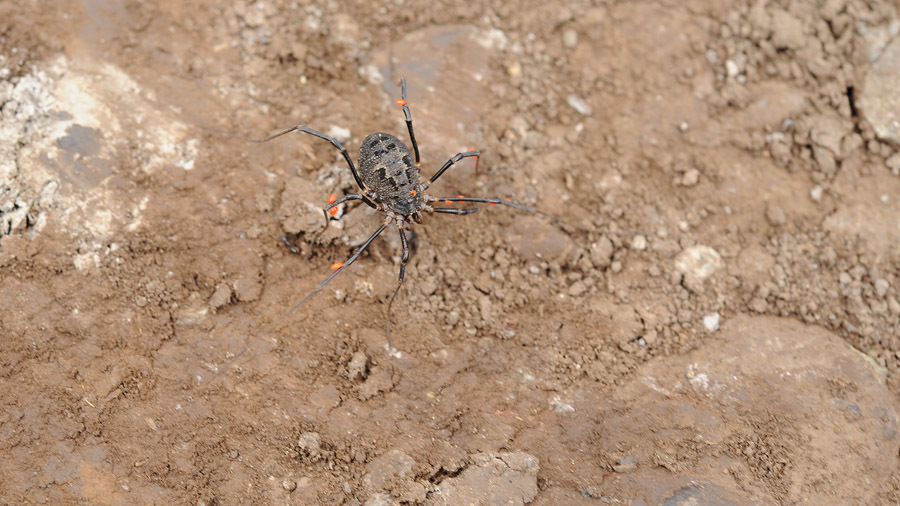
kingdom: Animalia
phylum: Arthropoda
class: Arachnida
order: Opiliones
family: Phalangiidae
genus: Himalphalangium
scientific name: Himalphalangium spinulatum
